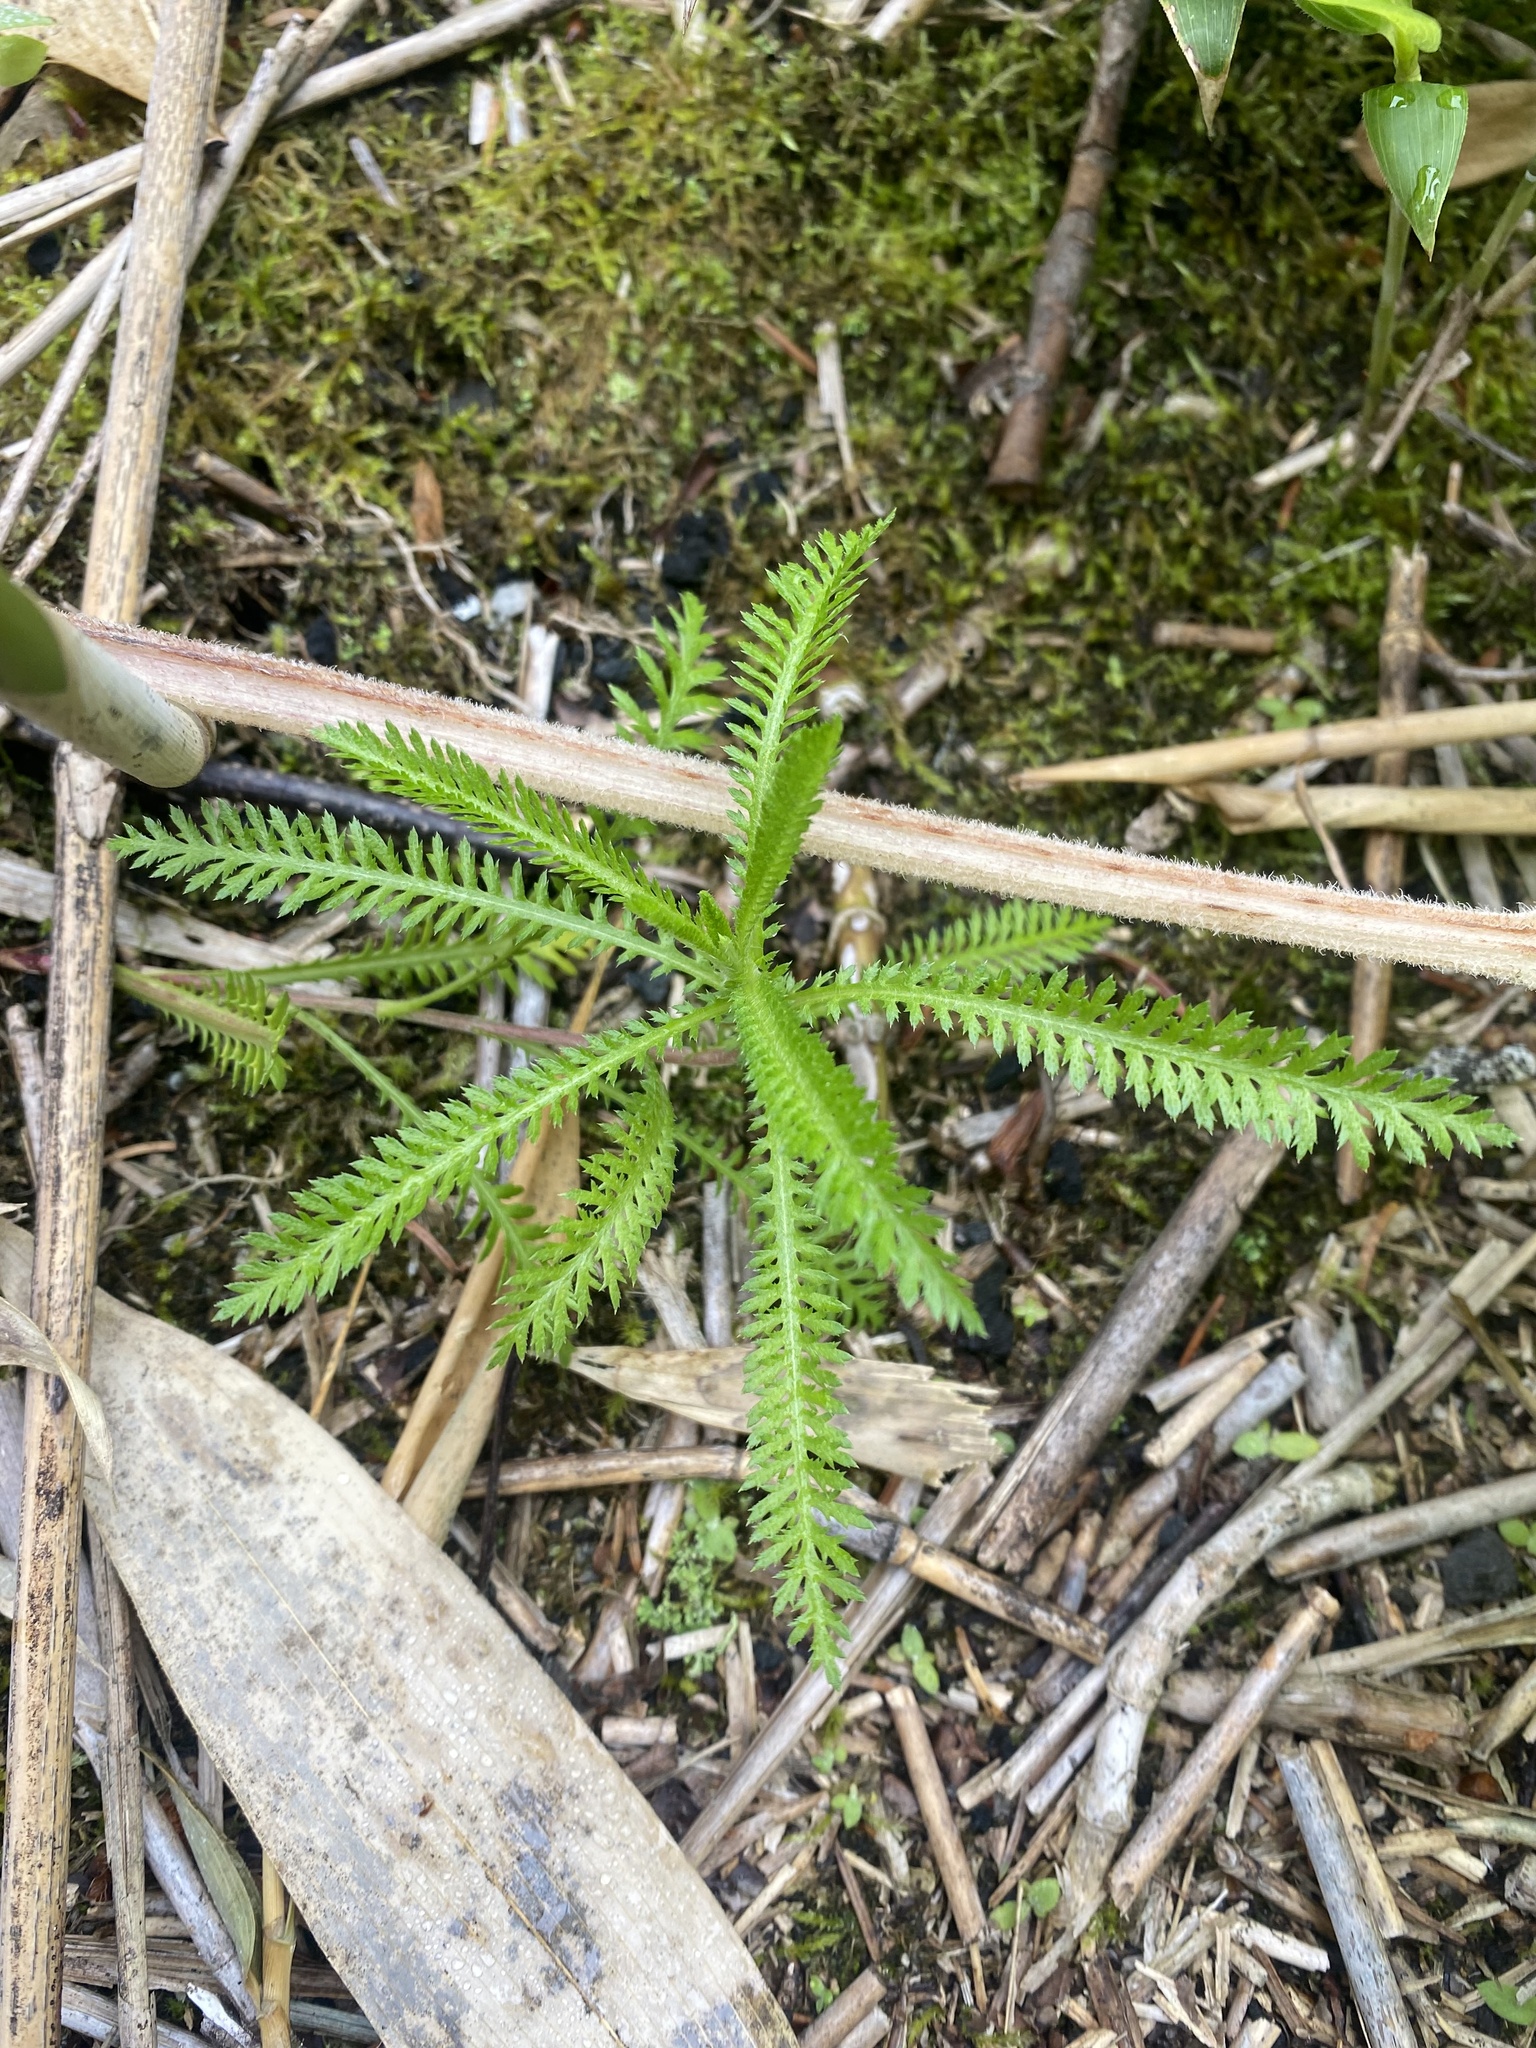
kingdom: Plantae
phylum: Tracheophyta
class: Magnoliopsida
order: Asterales
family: Asteraceae
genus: Achillea
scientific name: Achillea alpina
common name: Siberian yarrow
